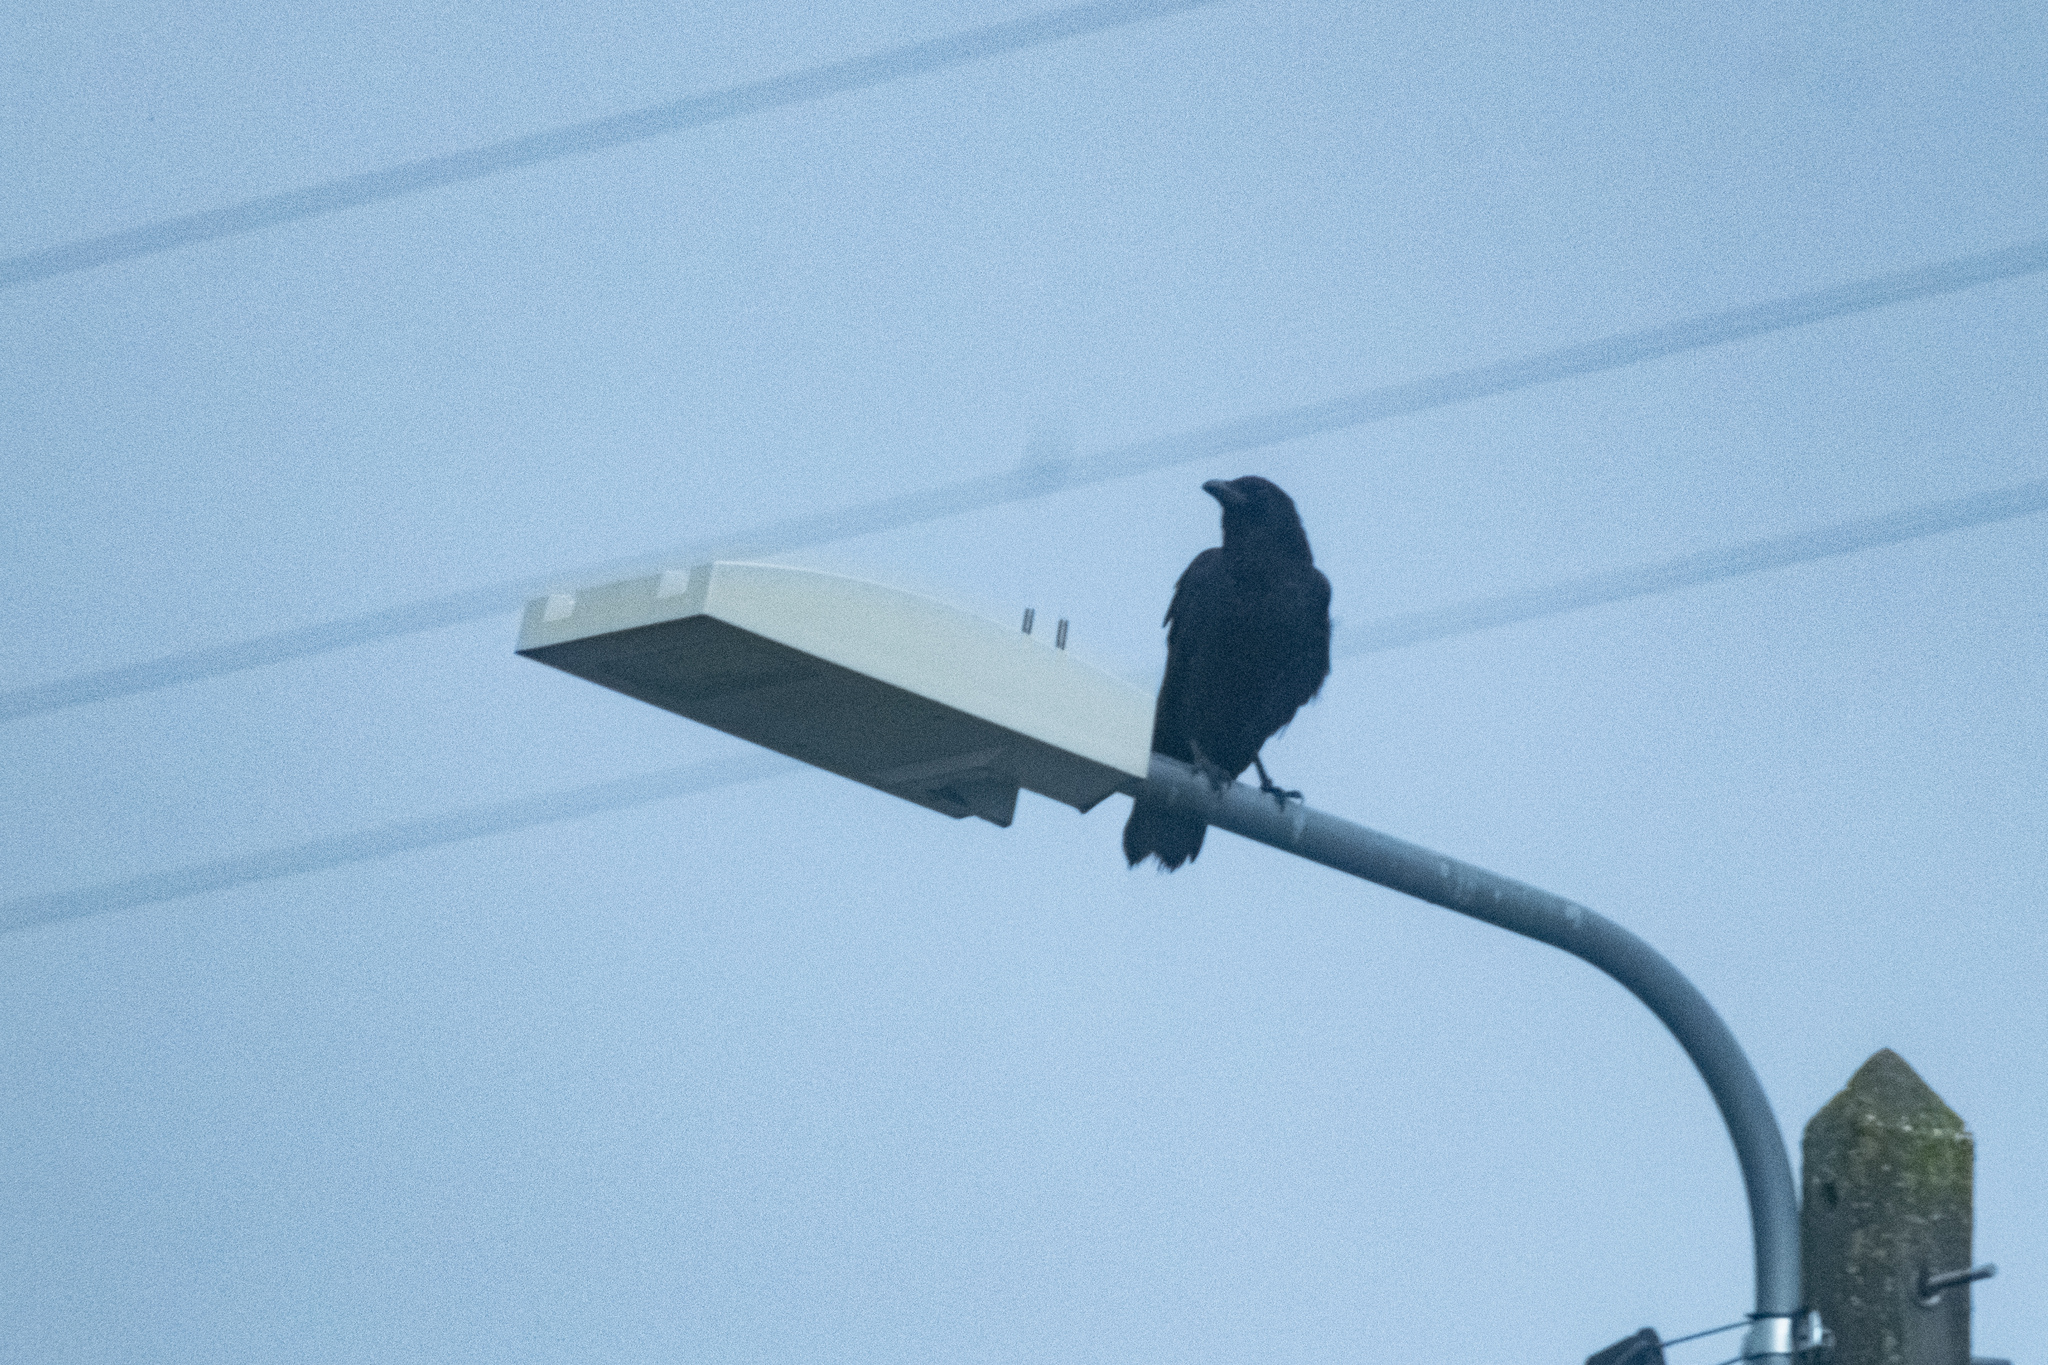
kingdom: Animalia
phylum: Chordata
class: Aves
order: Passeriformes
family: Corvidae
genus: Corvus
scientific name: Corvus corone
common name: Carrion crow
